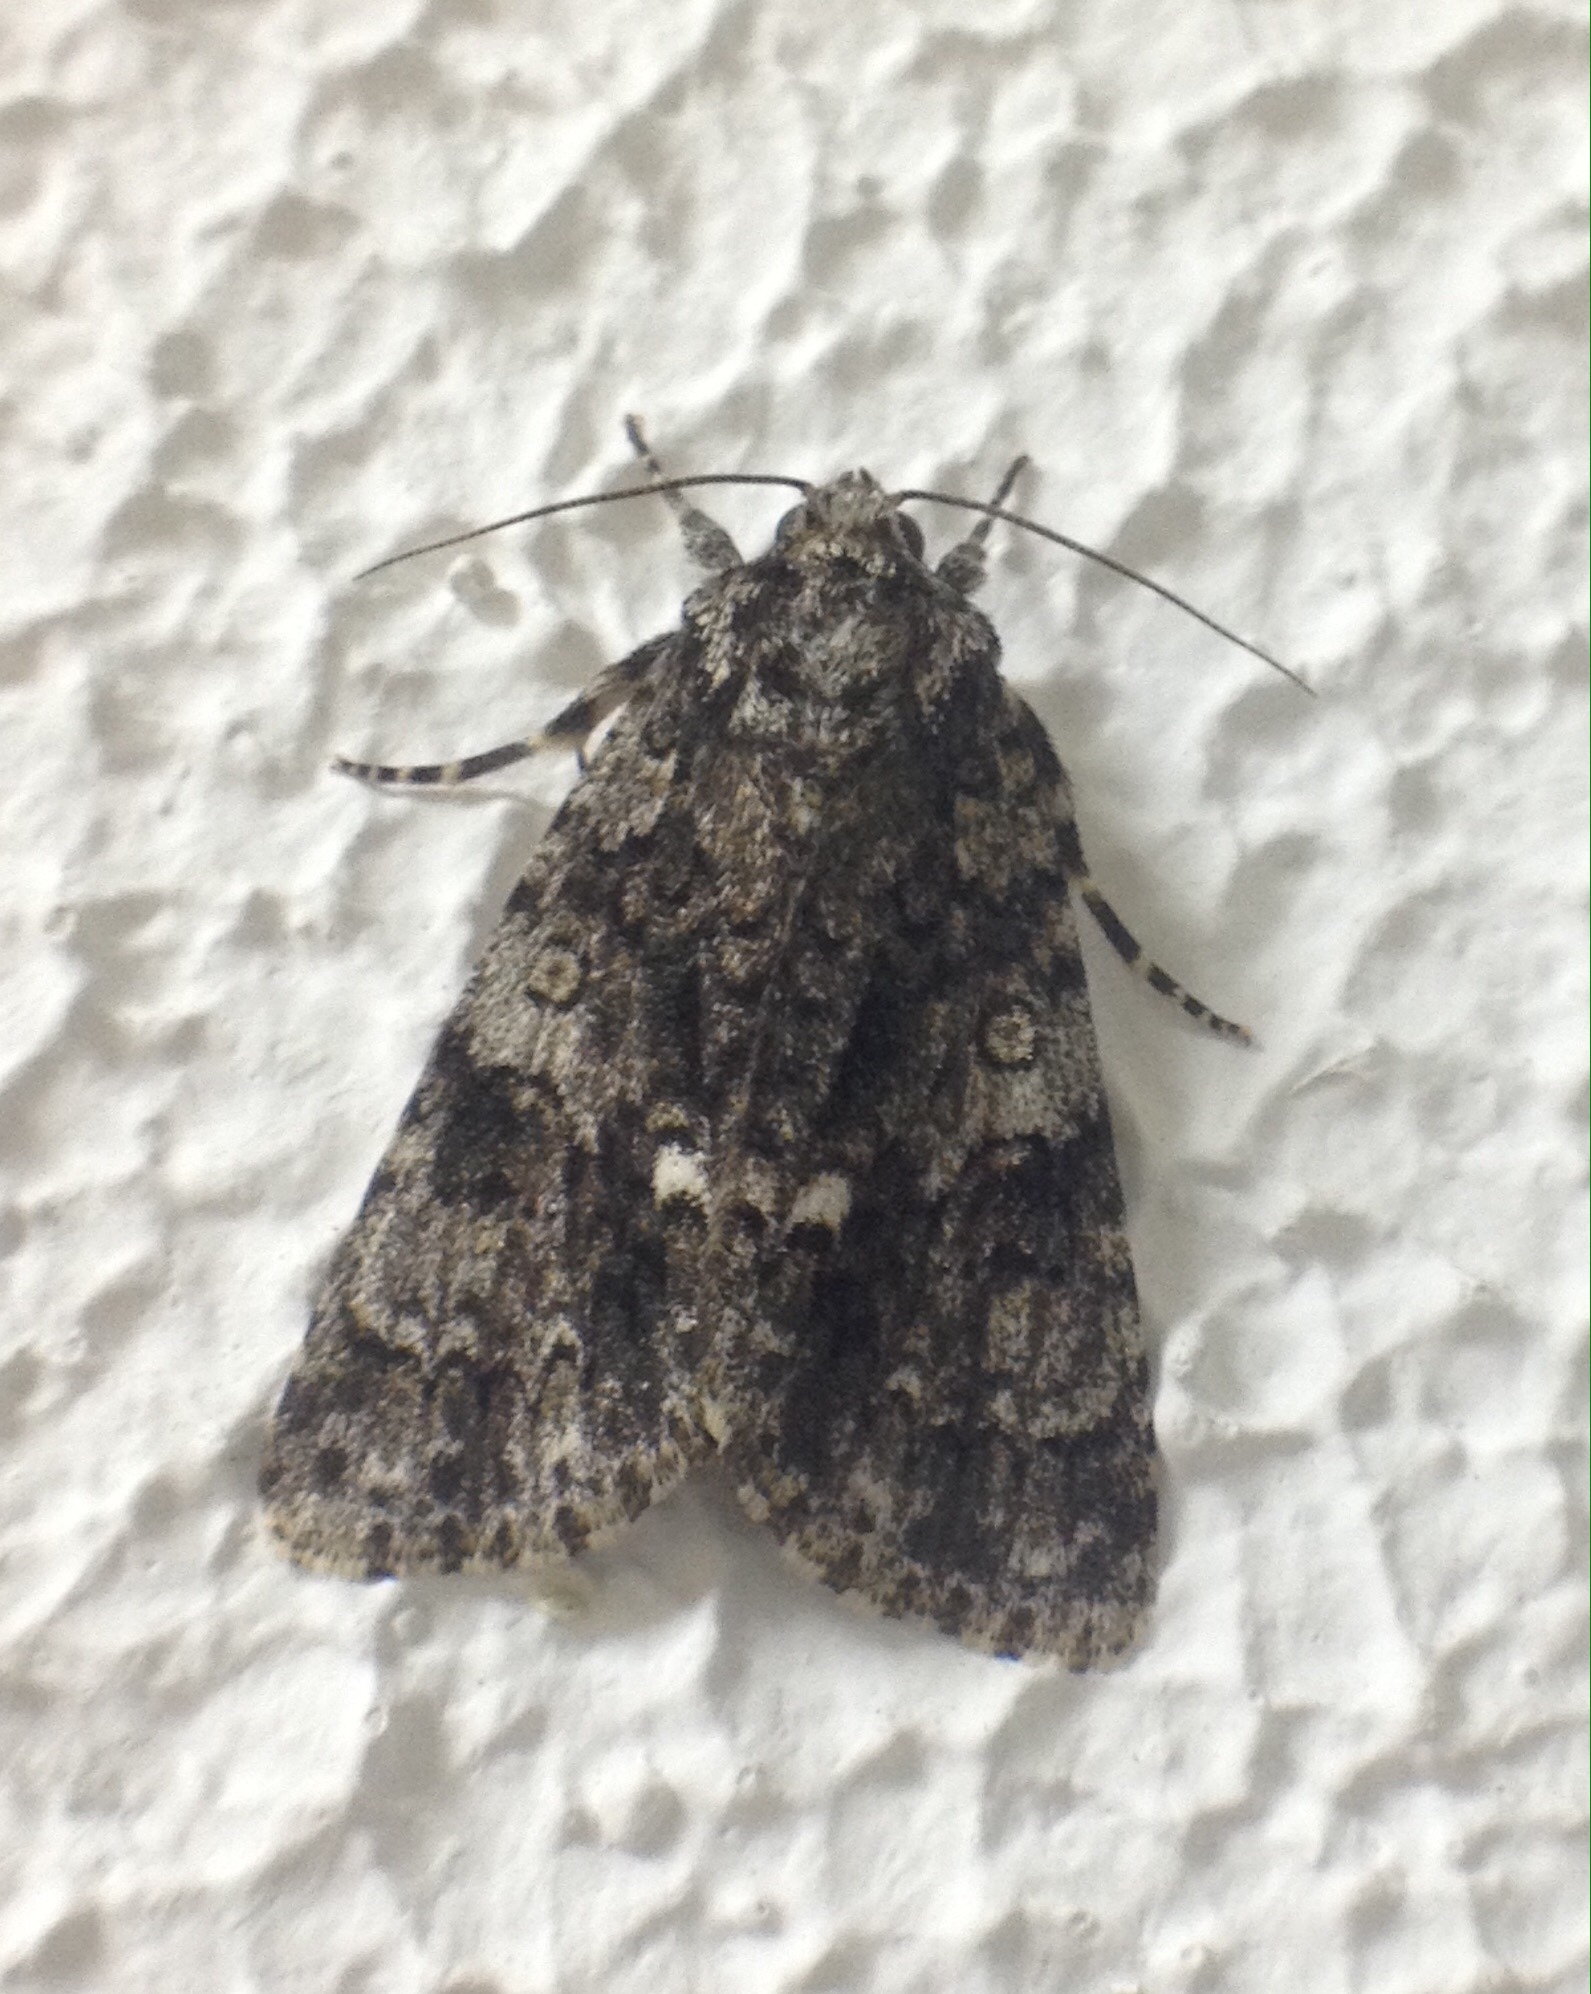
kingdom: Animalia
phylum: Arthropoda
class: Insecta
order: Lepidoptera
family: Noctuidae
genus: Acronicta
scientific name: Acronicta rumicis
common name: Knot grass
